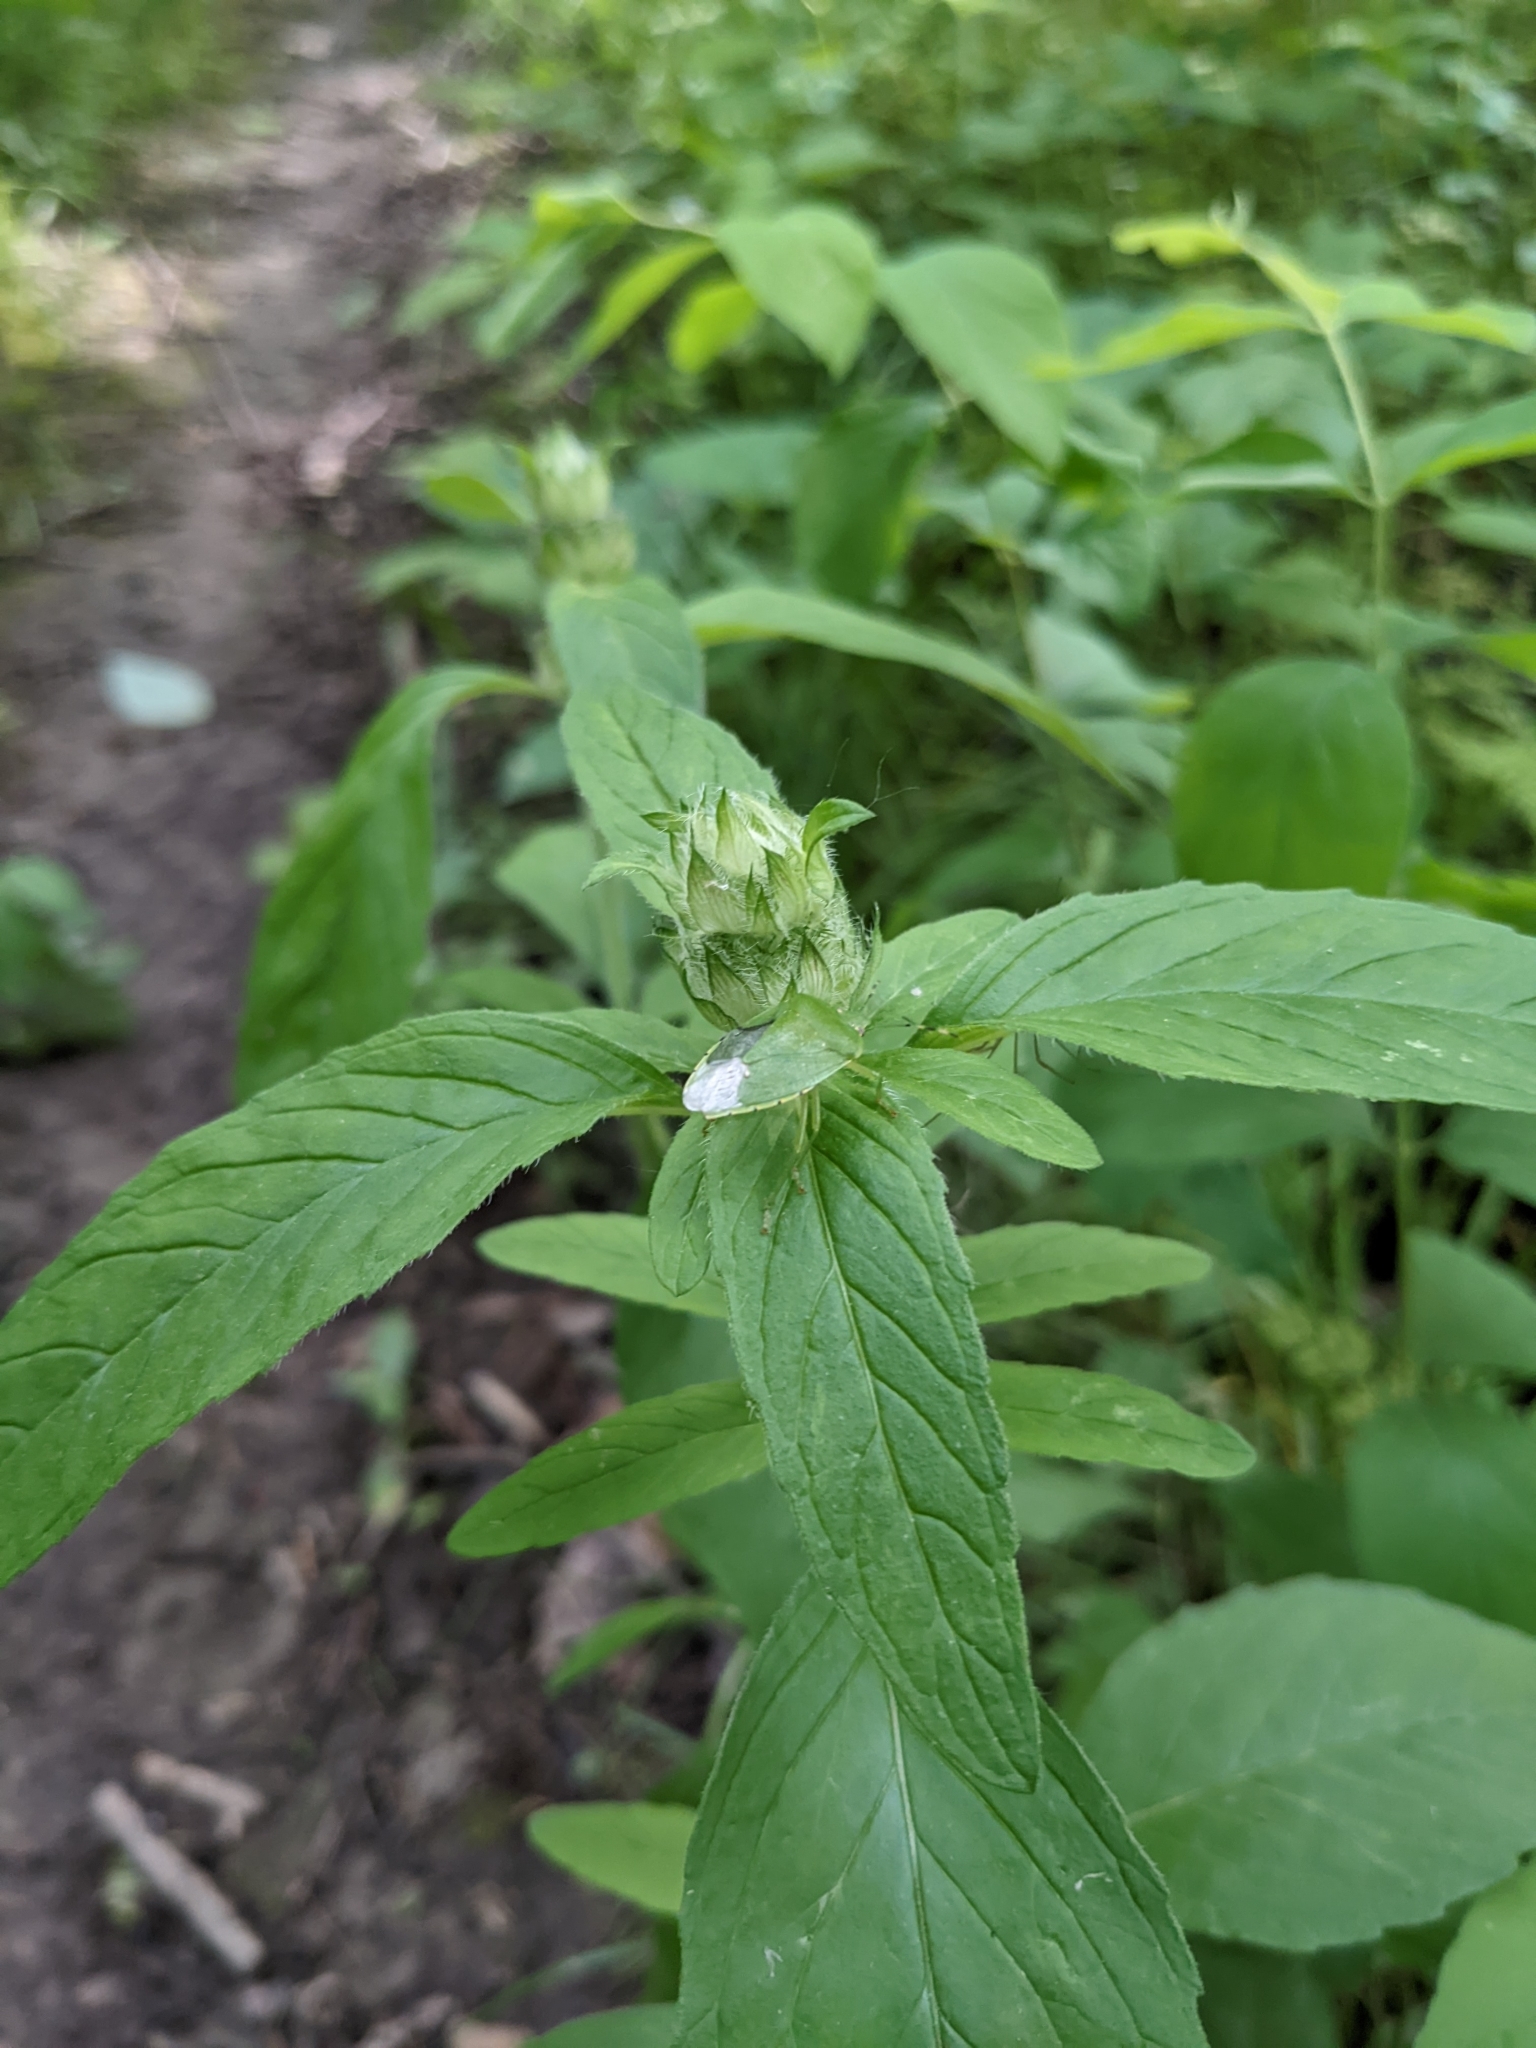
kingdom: Plantae
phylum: Tracheophyta
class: Magnoliopsida
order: Lamiales
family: Lamiaceae
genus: Prunella
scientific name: Prunella vulgaris
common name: Heal-all
